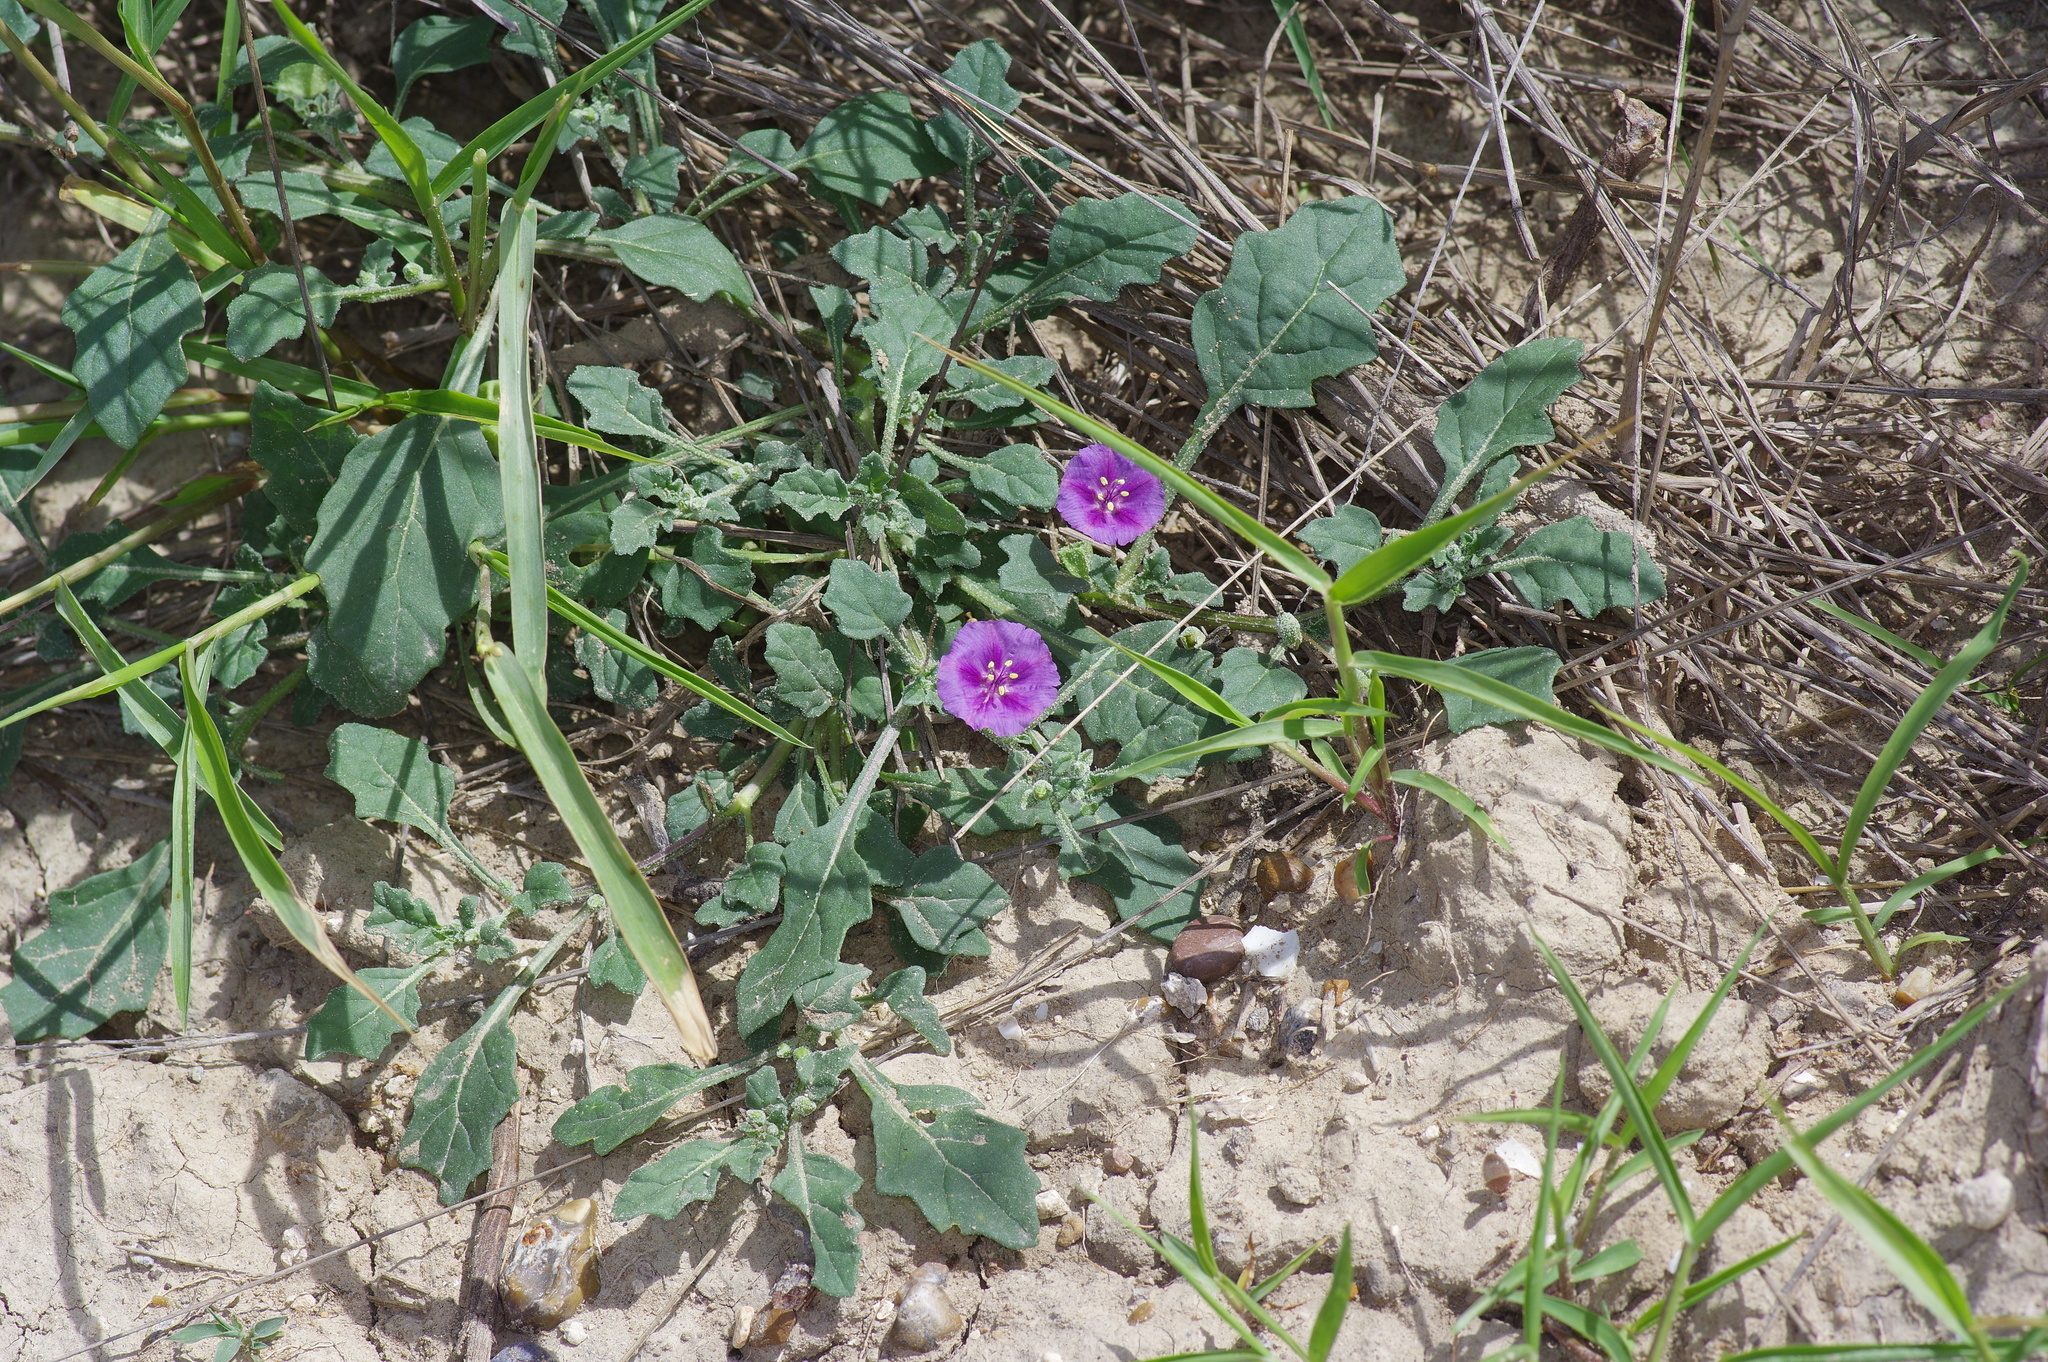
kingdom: Plantae
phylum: Tracheophyta
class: Magnoliopsida
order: Solanales
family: Solanaceae
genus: Quincula
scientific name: Quincula lobata
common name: Purple-ground-cherry
